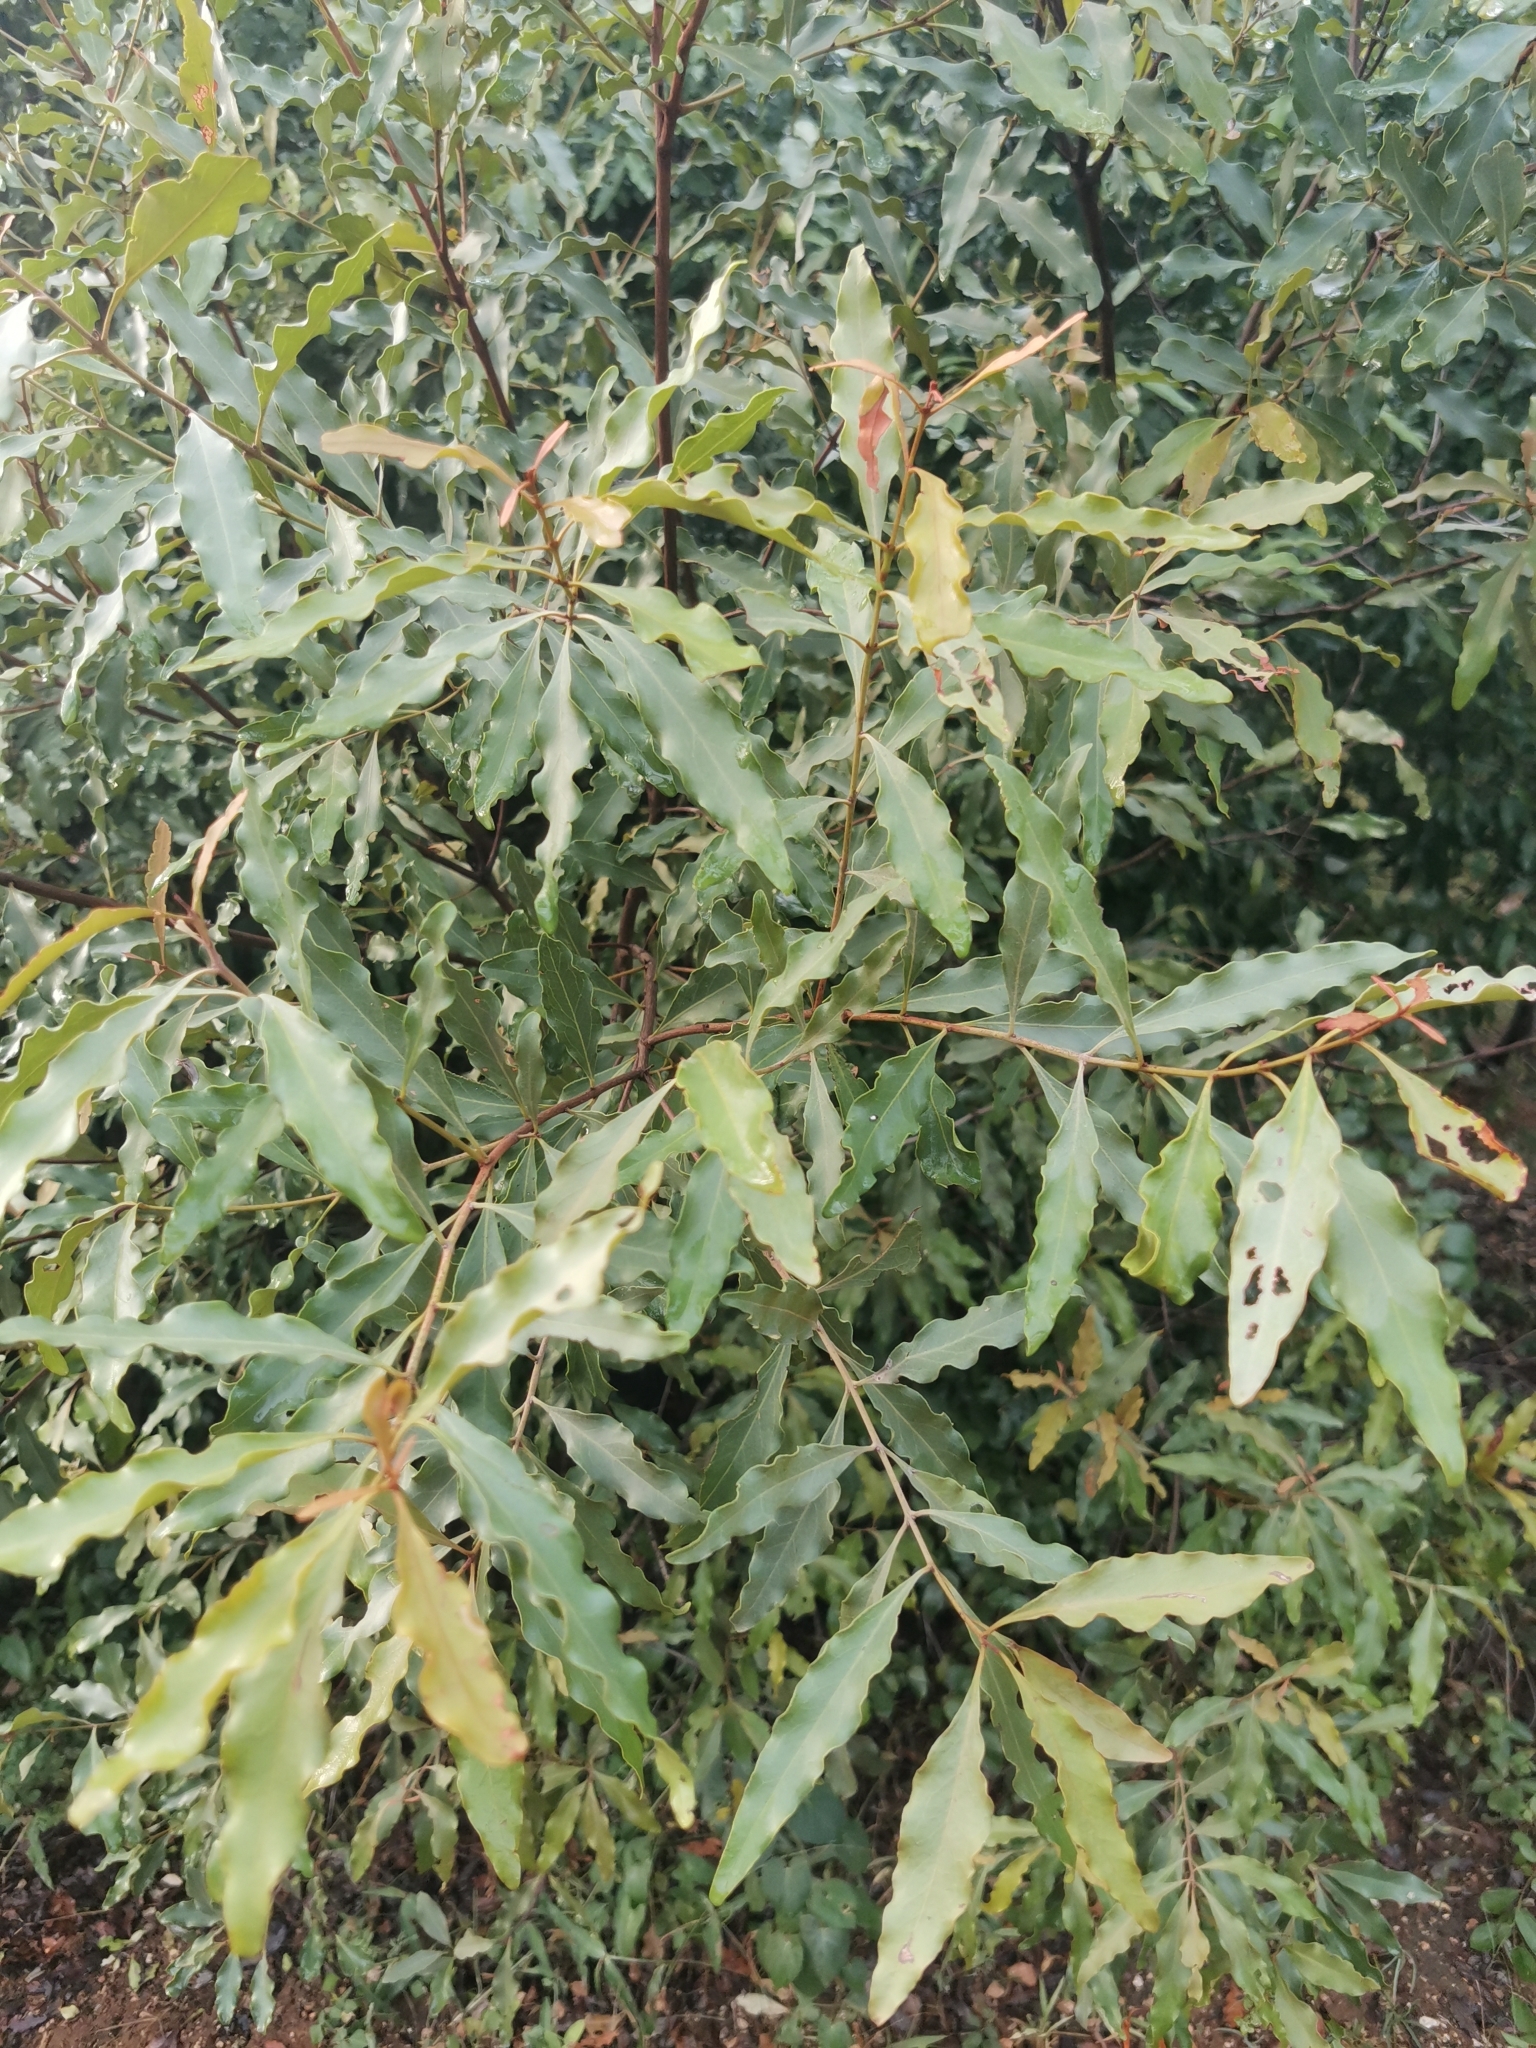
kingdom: Plantae
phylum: Tracheophyta
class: Magnoliopsida
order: Ericales
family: Ebenaceae
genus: Euclea
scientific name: Euclea divinorum
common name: Diamond-leaved euclea
